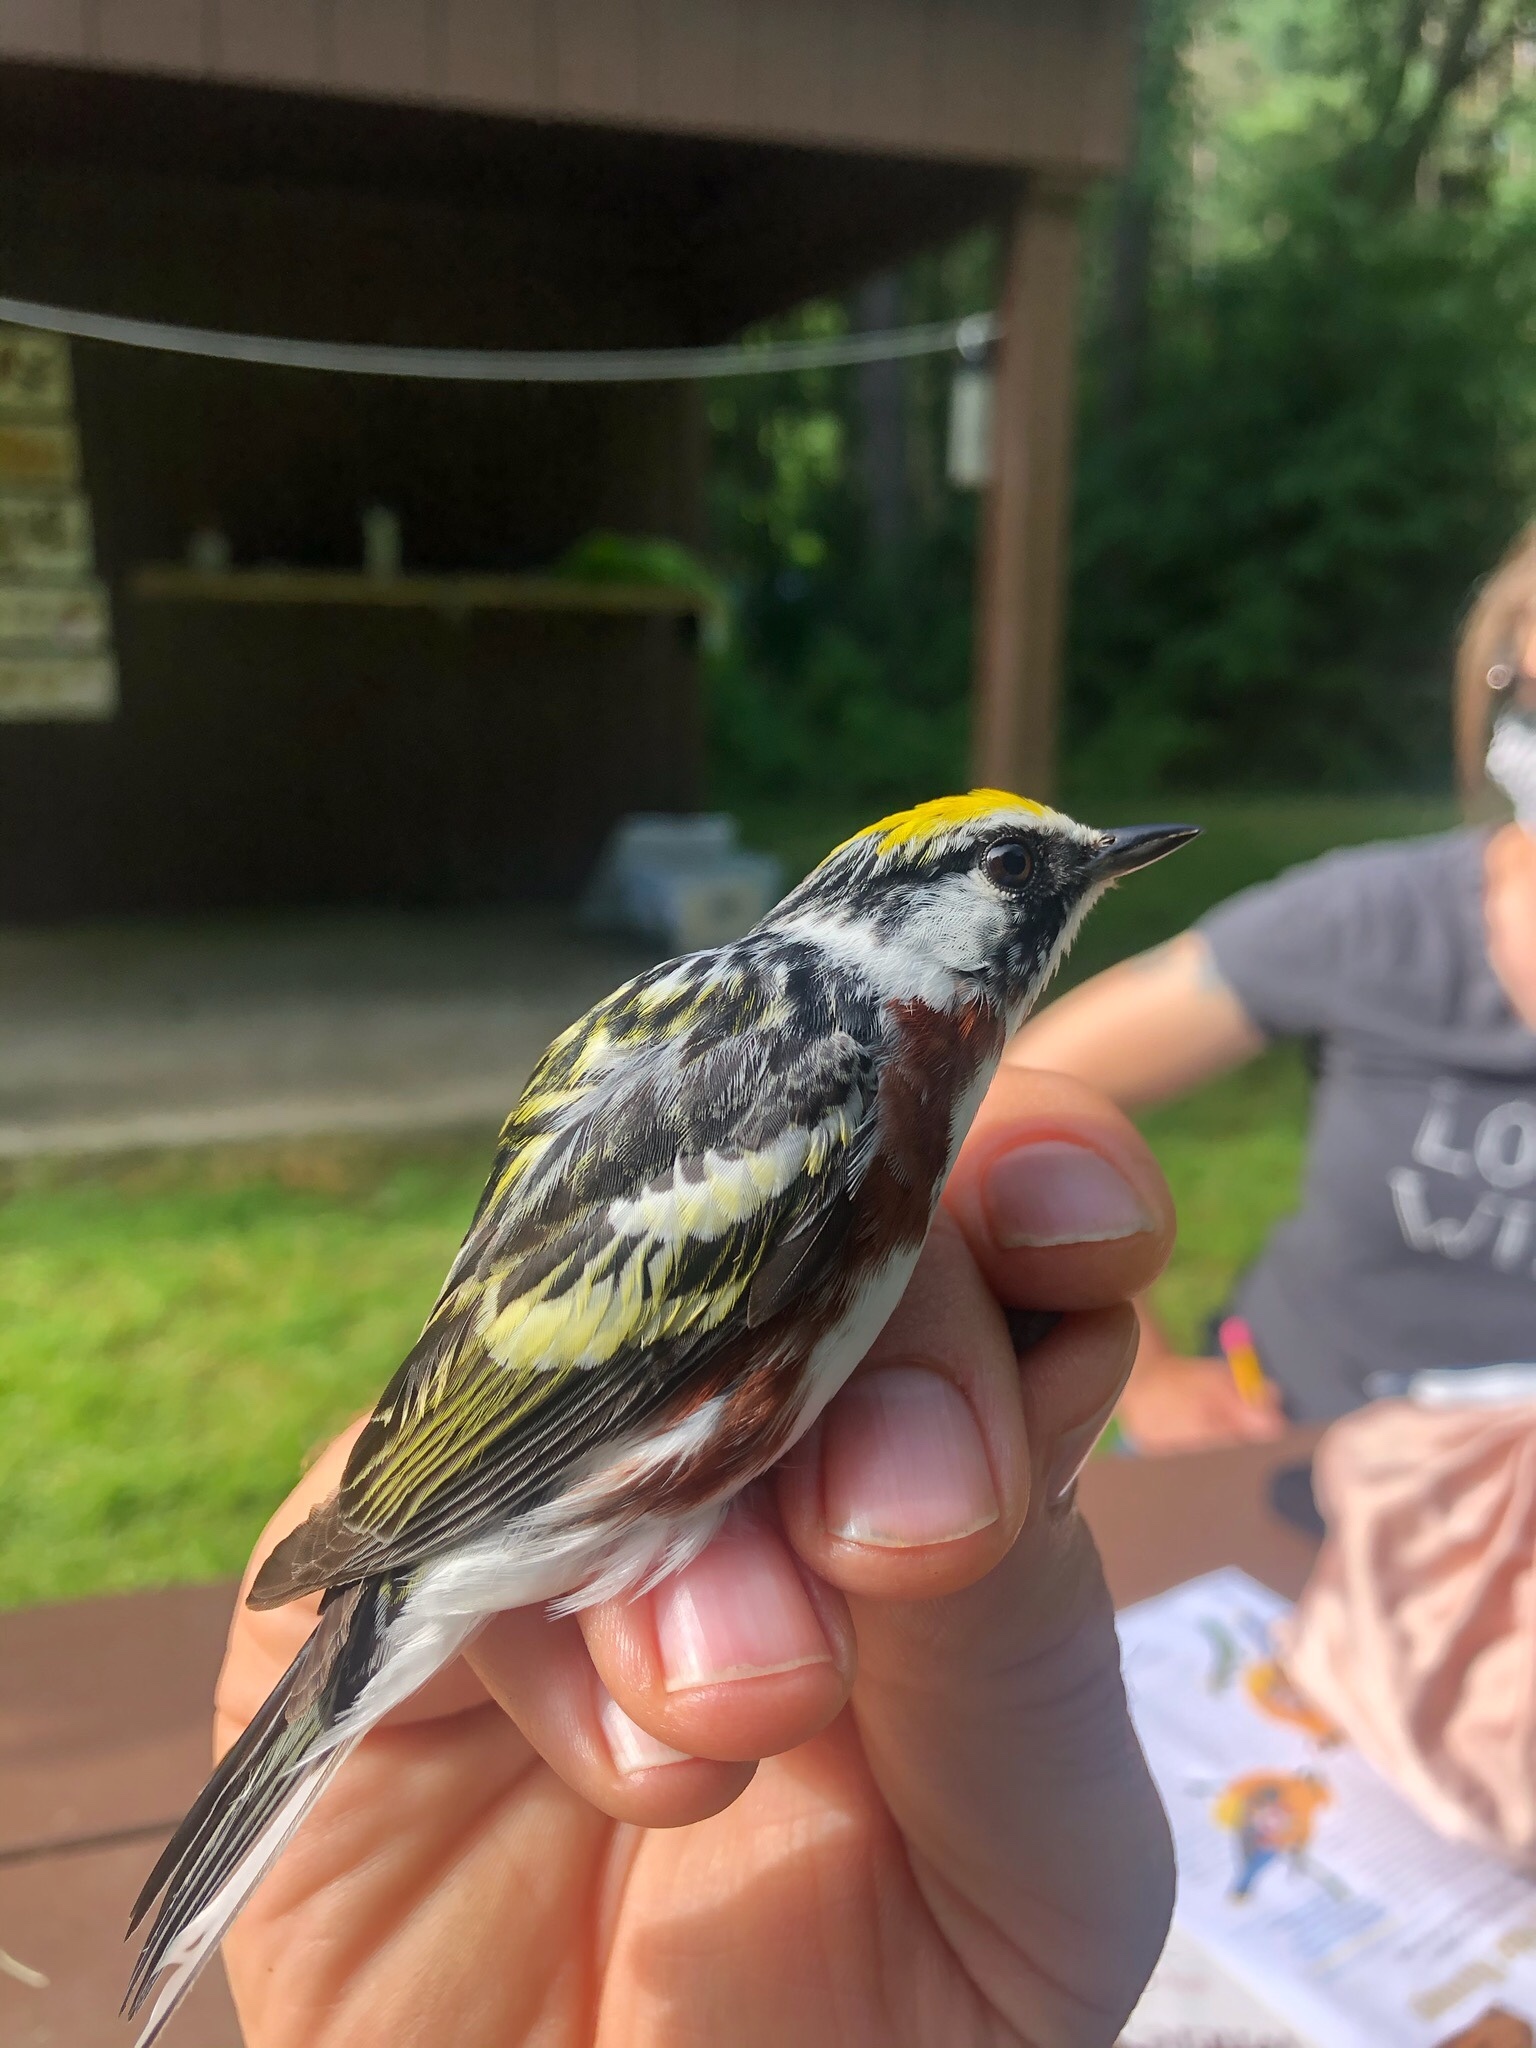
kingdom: Animalia
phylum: Chordata
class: Aves
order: Passeriformes
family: Parulidae
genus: Setophaga
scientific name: Setophaga pensylvanica
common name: Chestnut-sided warbler
